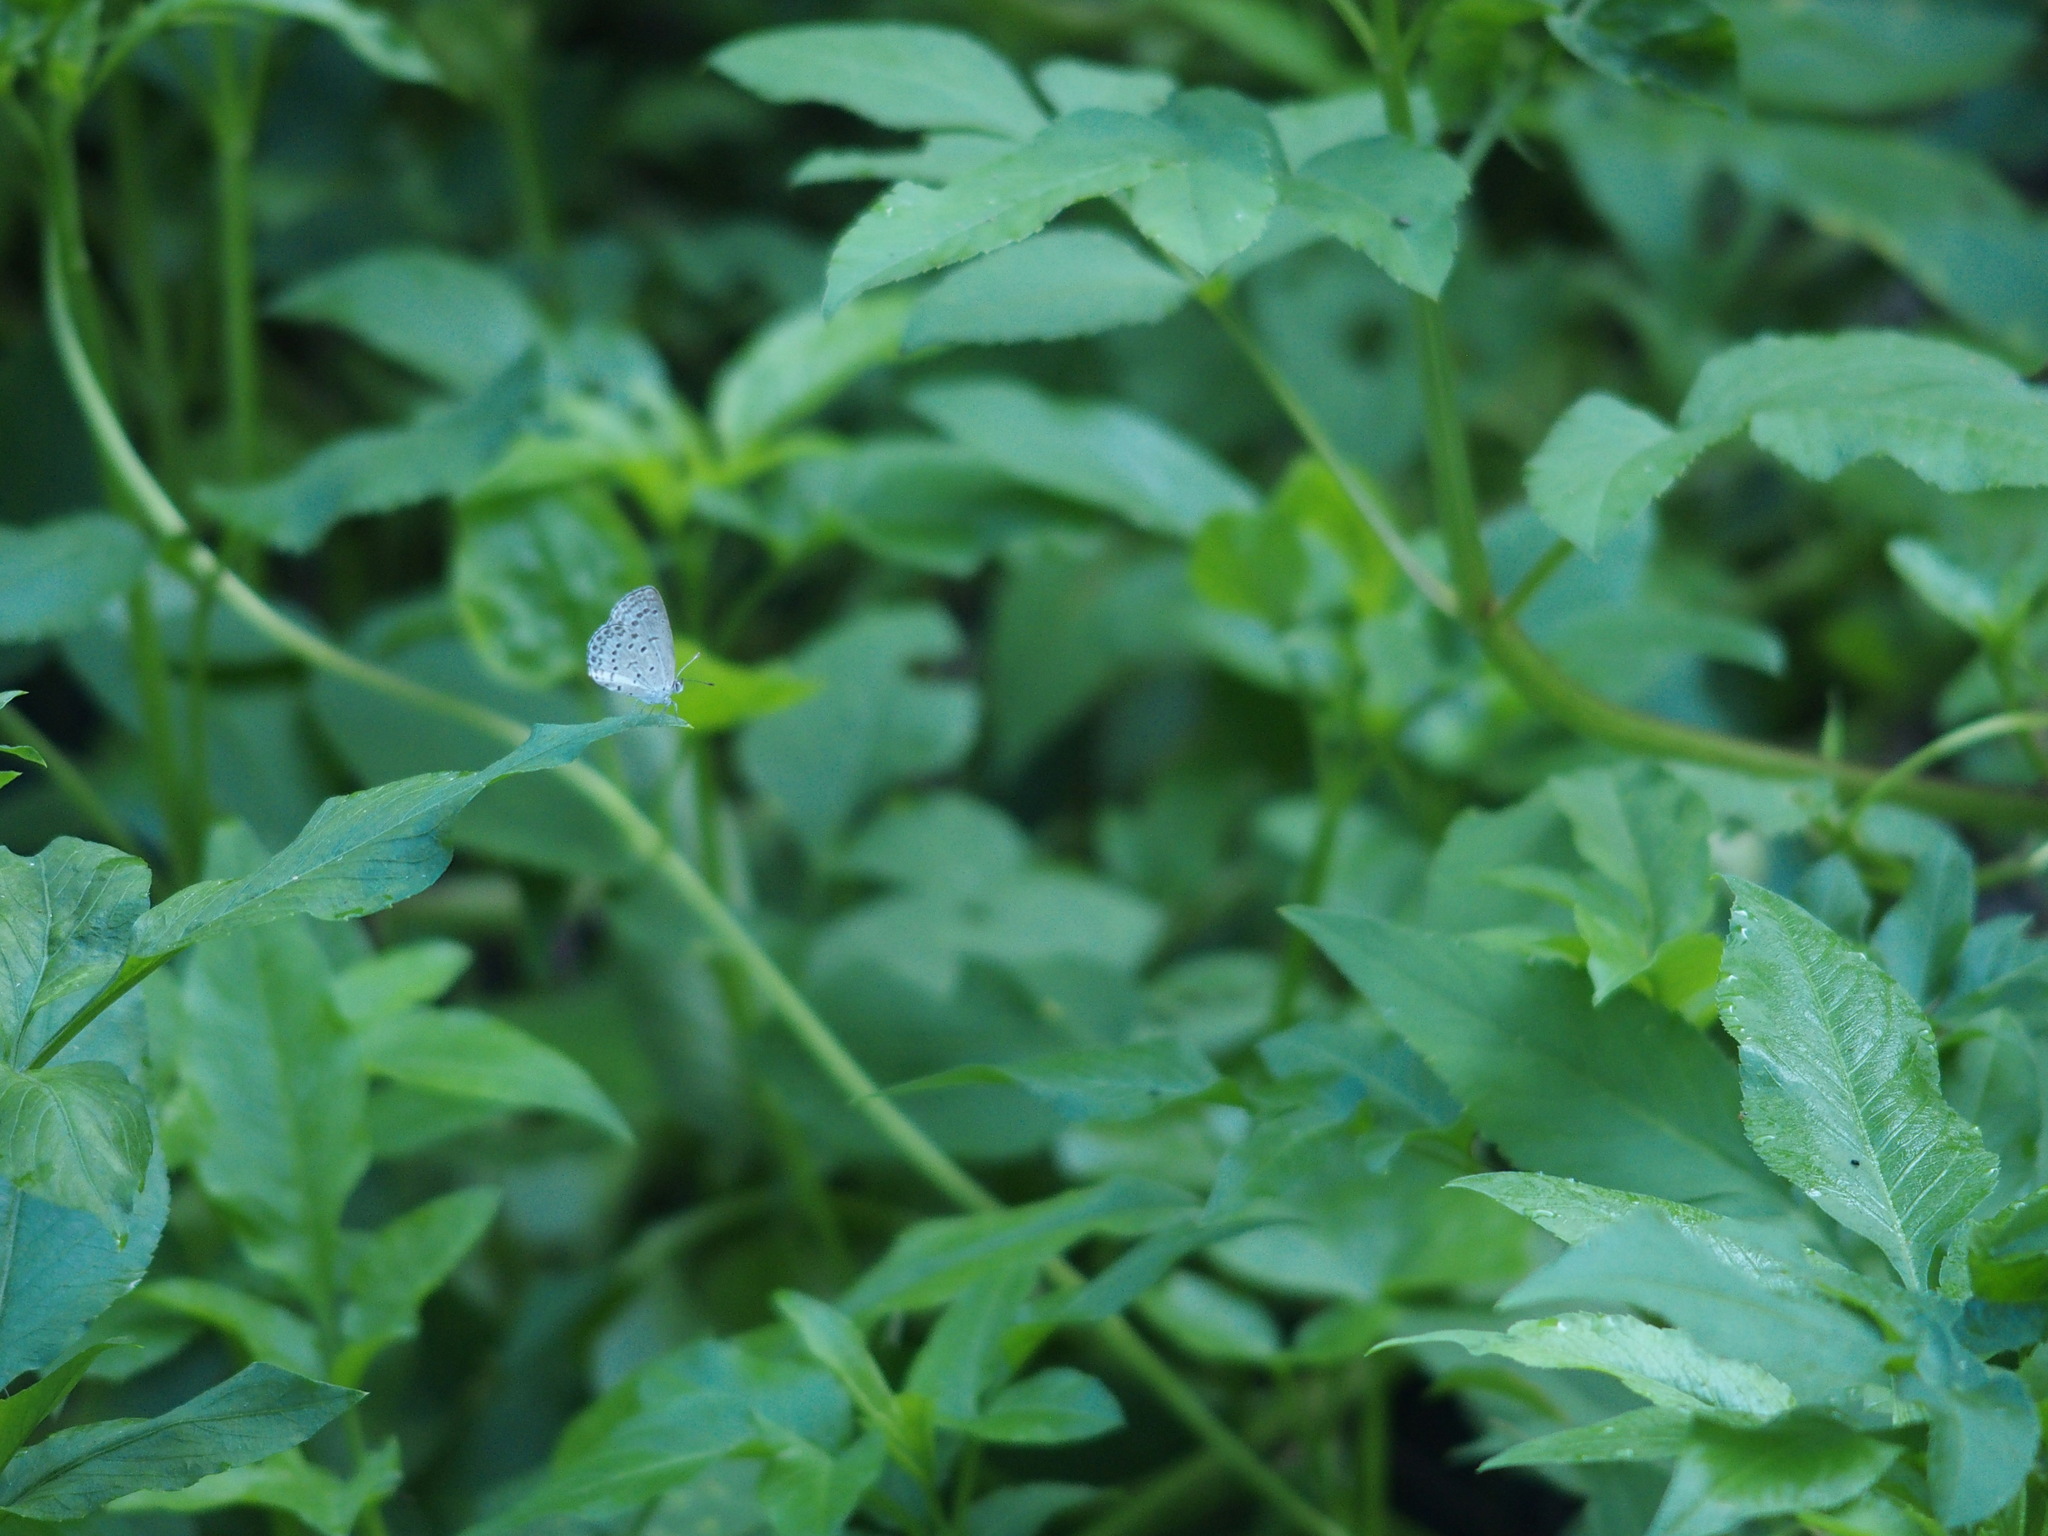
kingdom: Animalia
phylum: Arthropoda
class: Insecta
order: Lepidoptera
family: Lycaenidae
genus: Pseudozizeeria
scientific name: Pseudozizeeria maha
